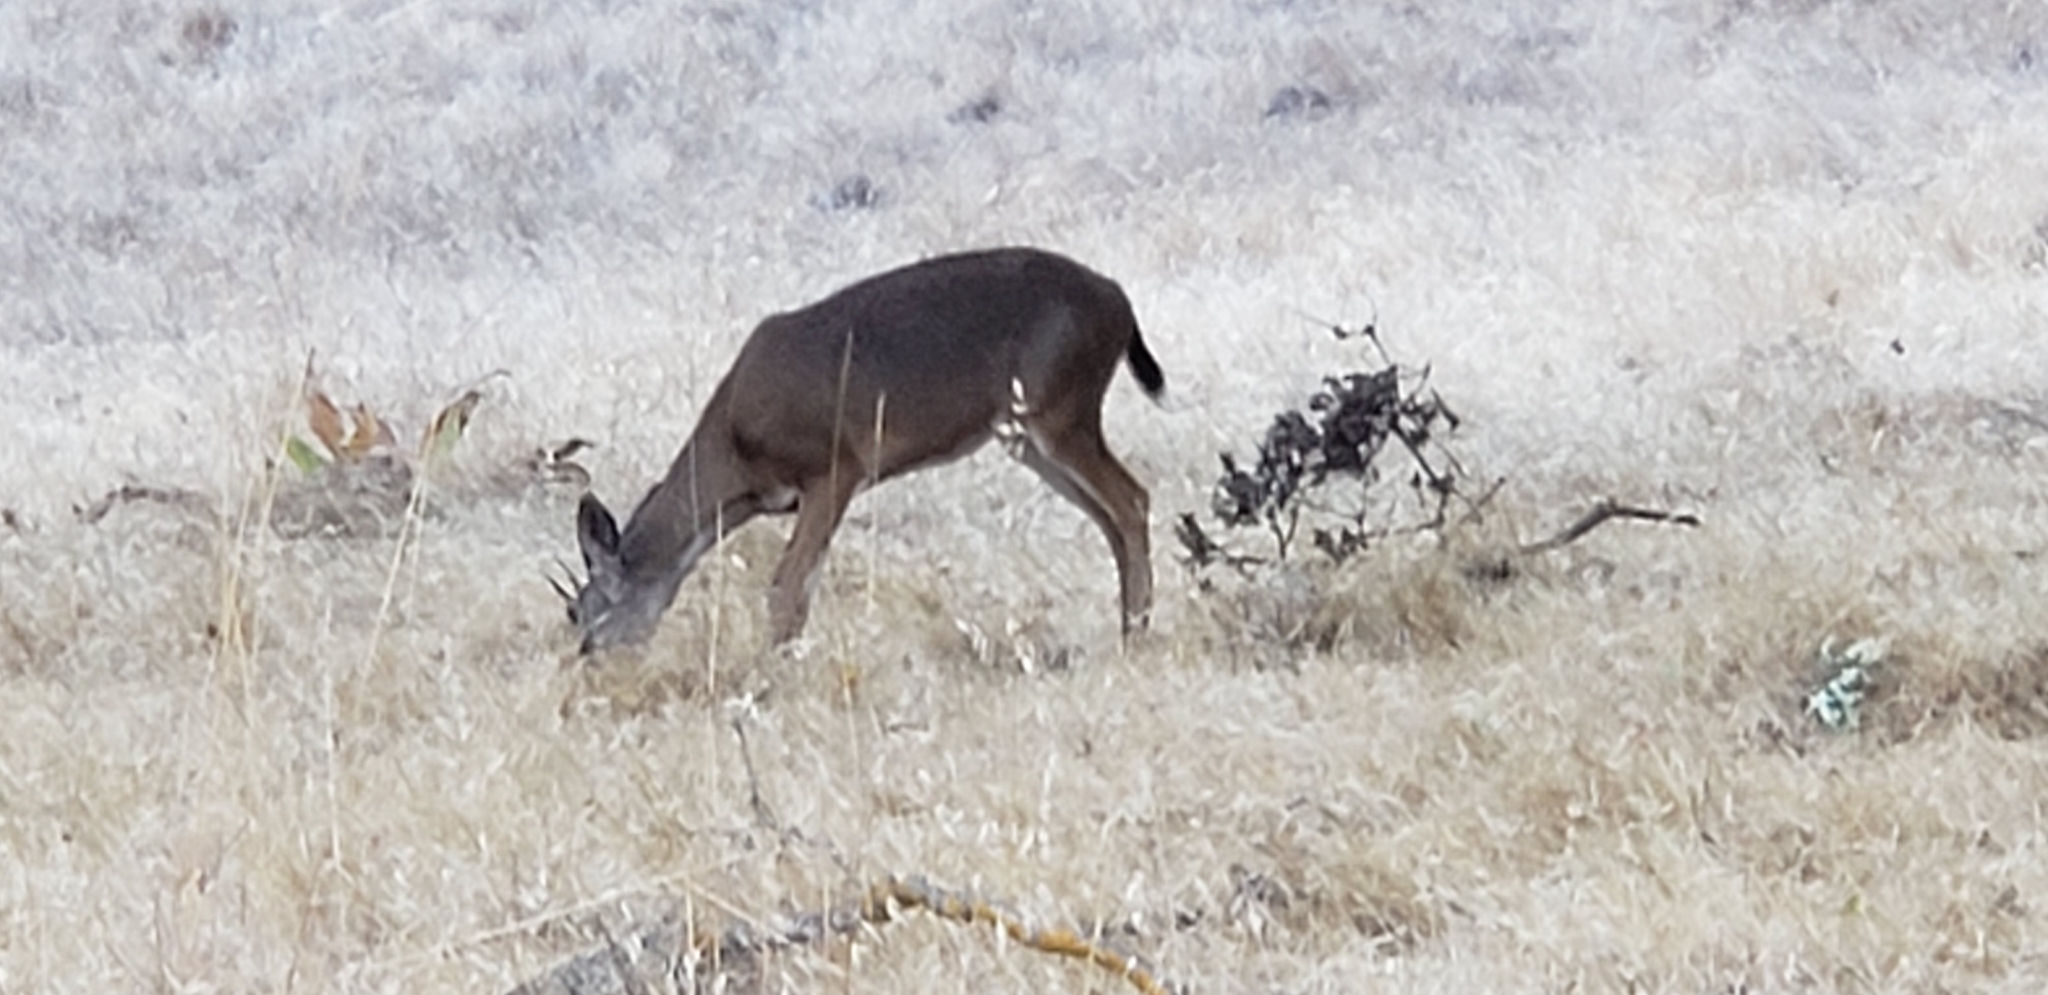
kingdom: Animalia
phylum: Chordata
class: Mammalia
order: Artiodactyla
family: Cervidae
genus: Odocoileus
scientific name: Odocoileus hemionus
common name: Mule deer
